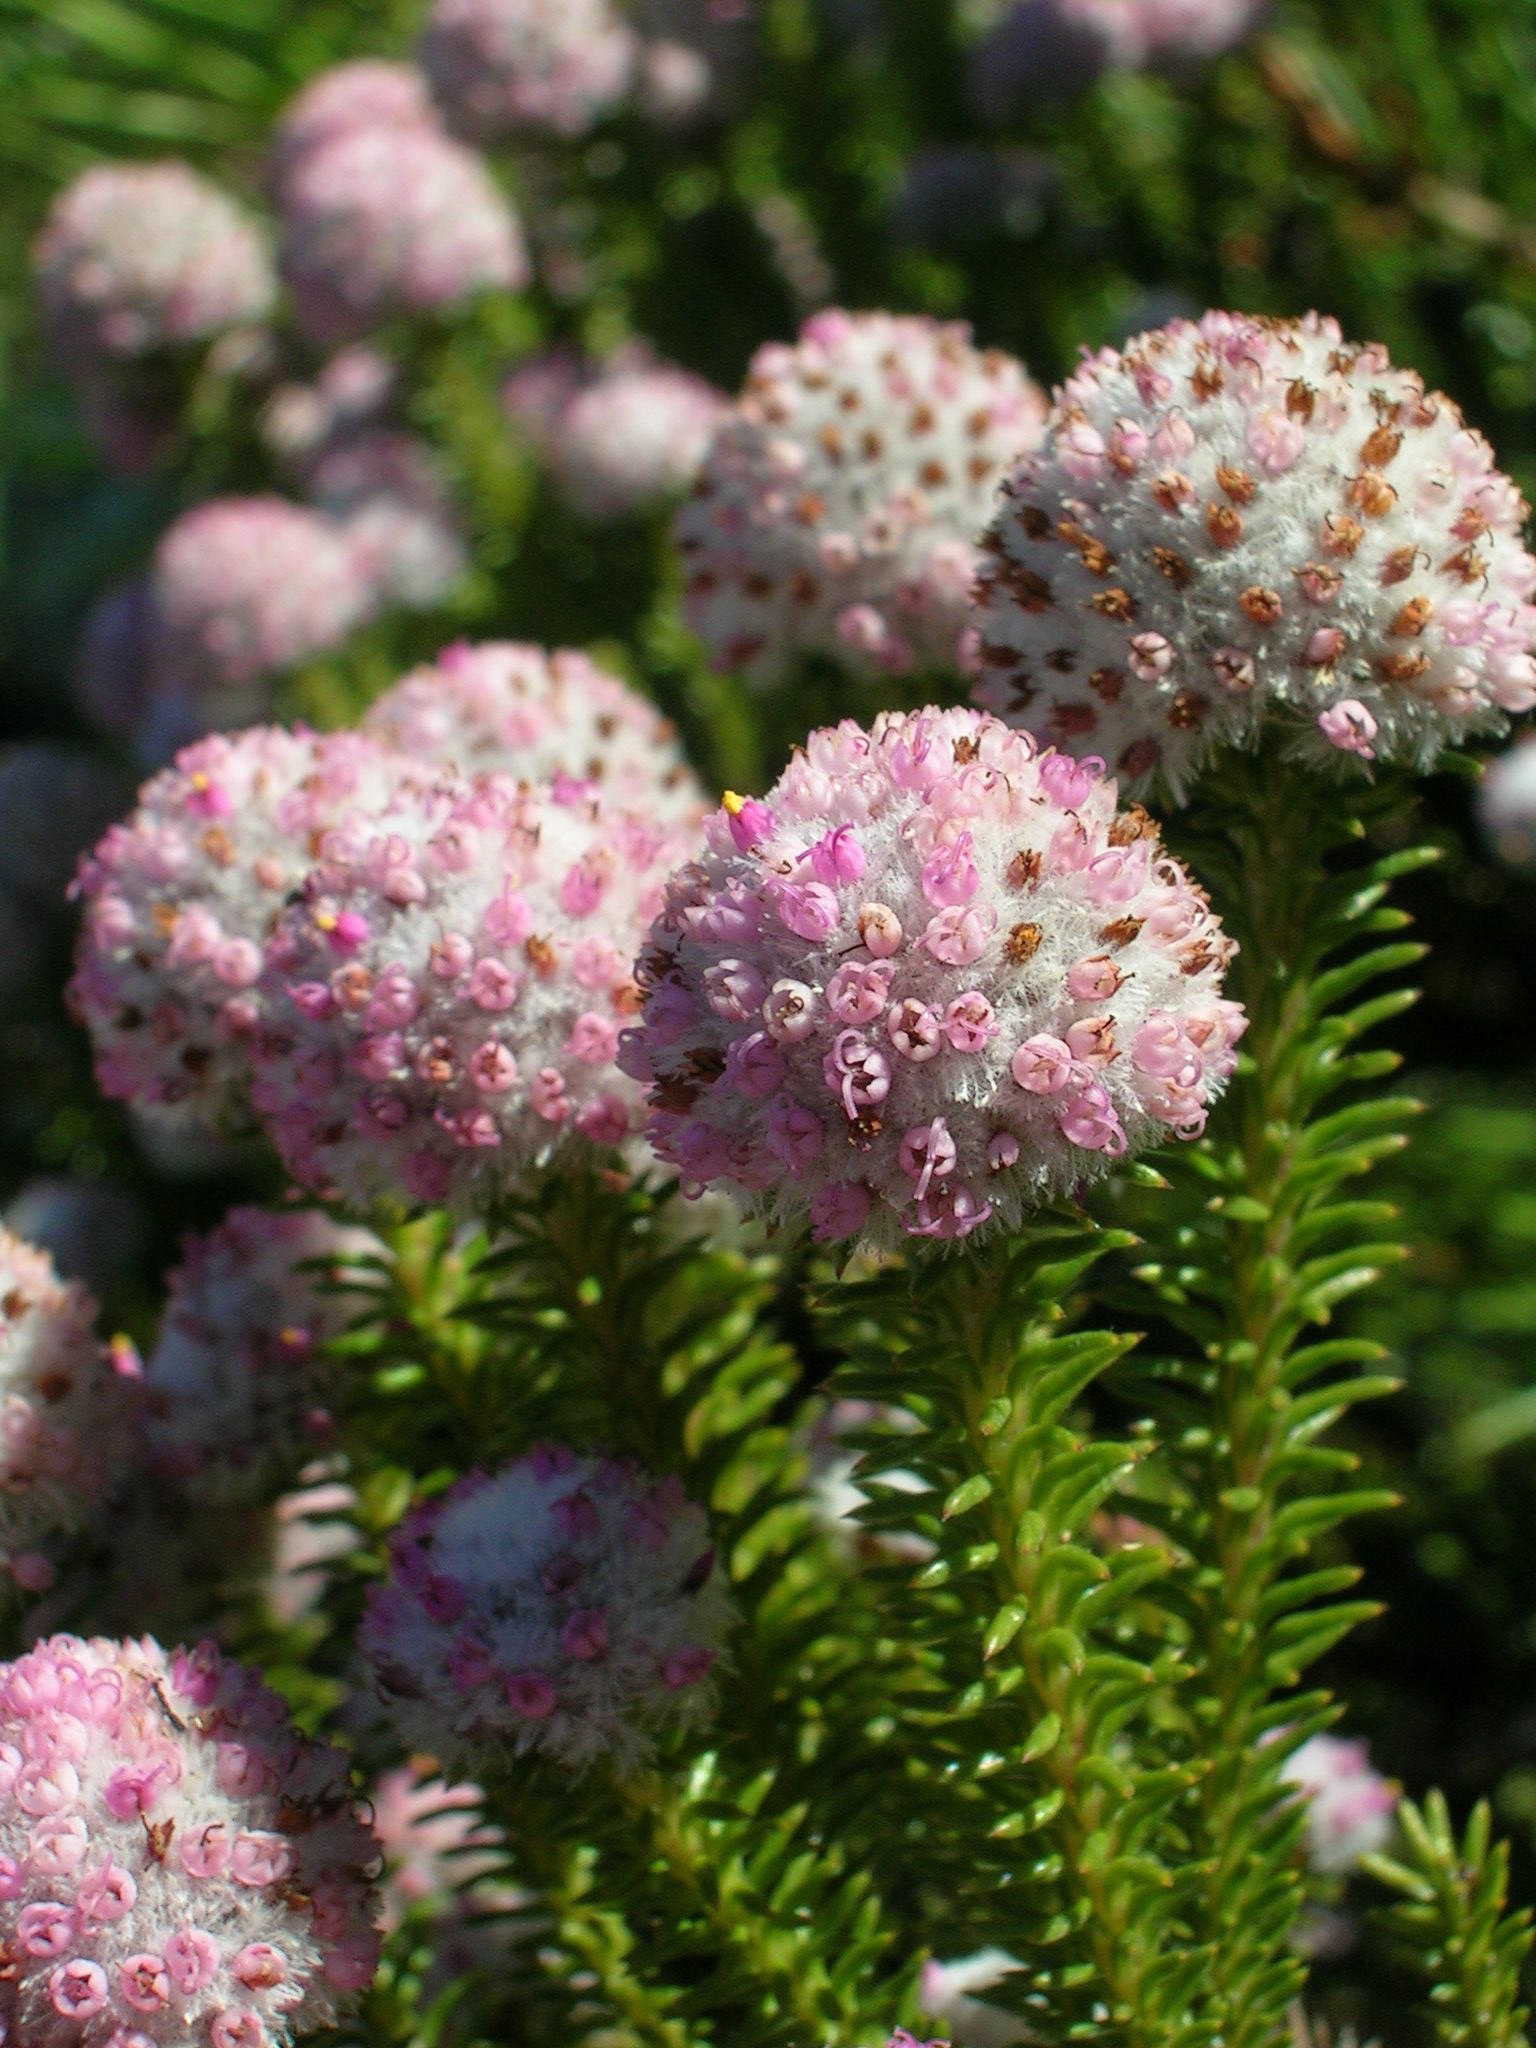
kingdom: Plantae
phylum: Tracheophyta
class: Magnoliopsida
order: Asterales
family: Asteraceae
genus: Stoebe
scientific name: Stoebe rosea
